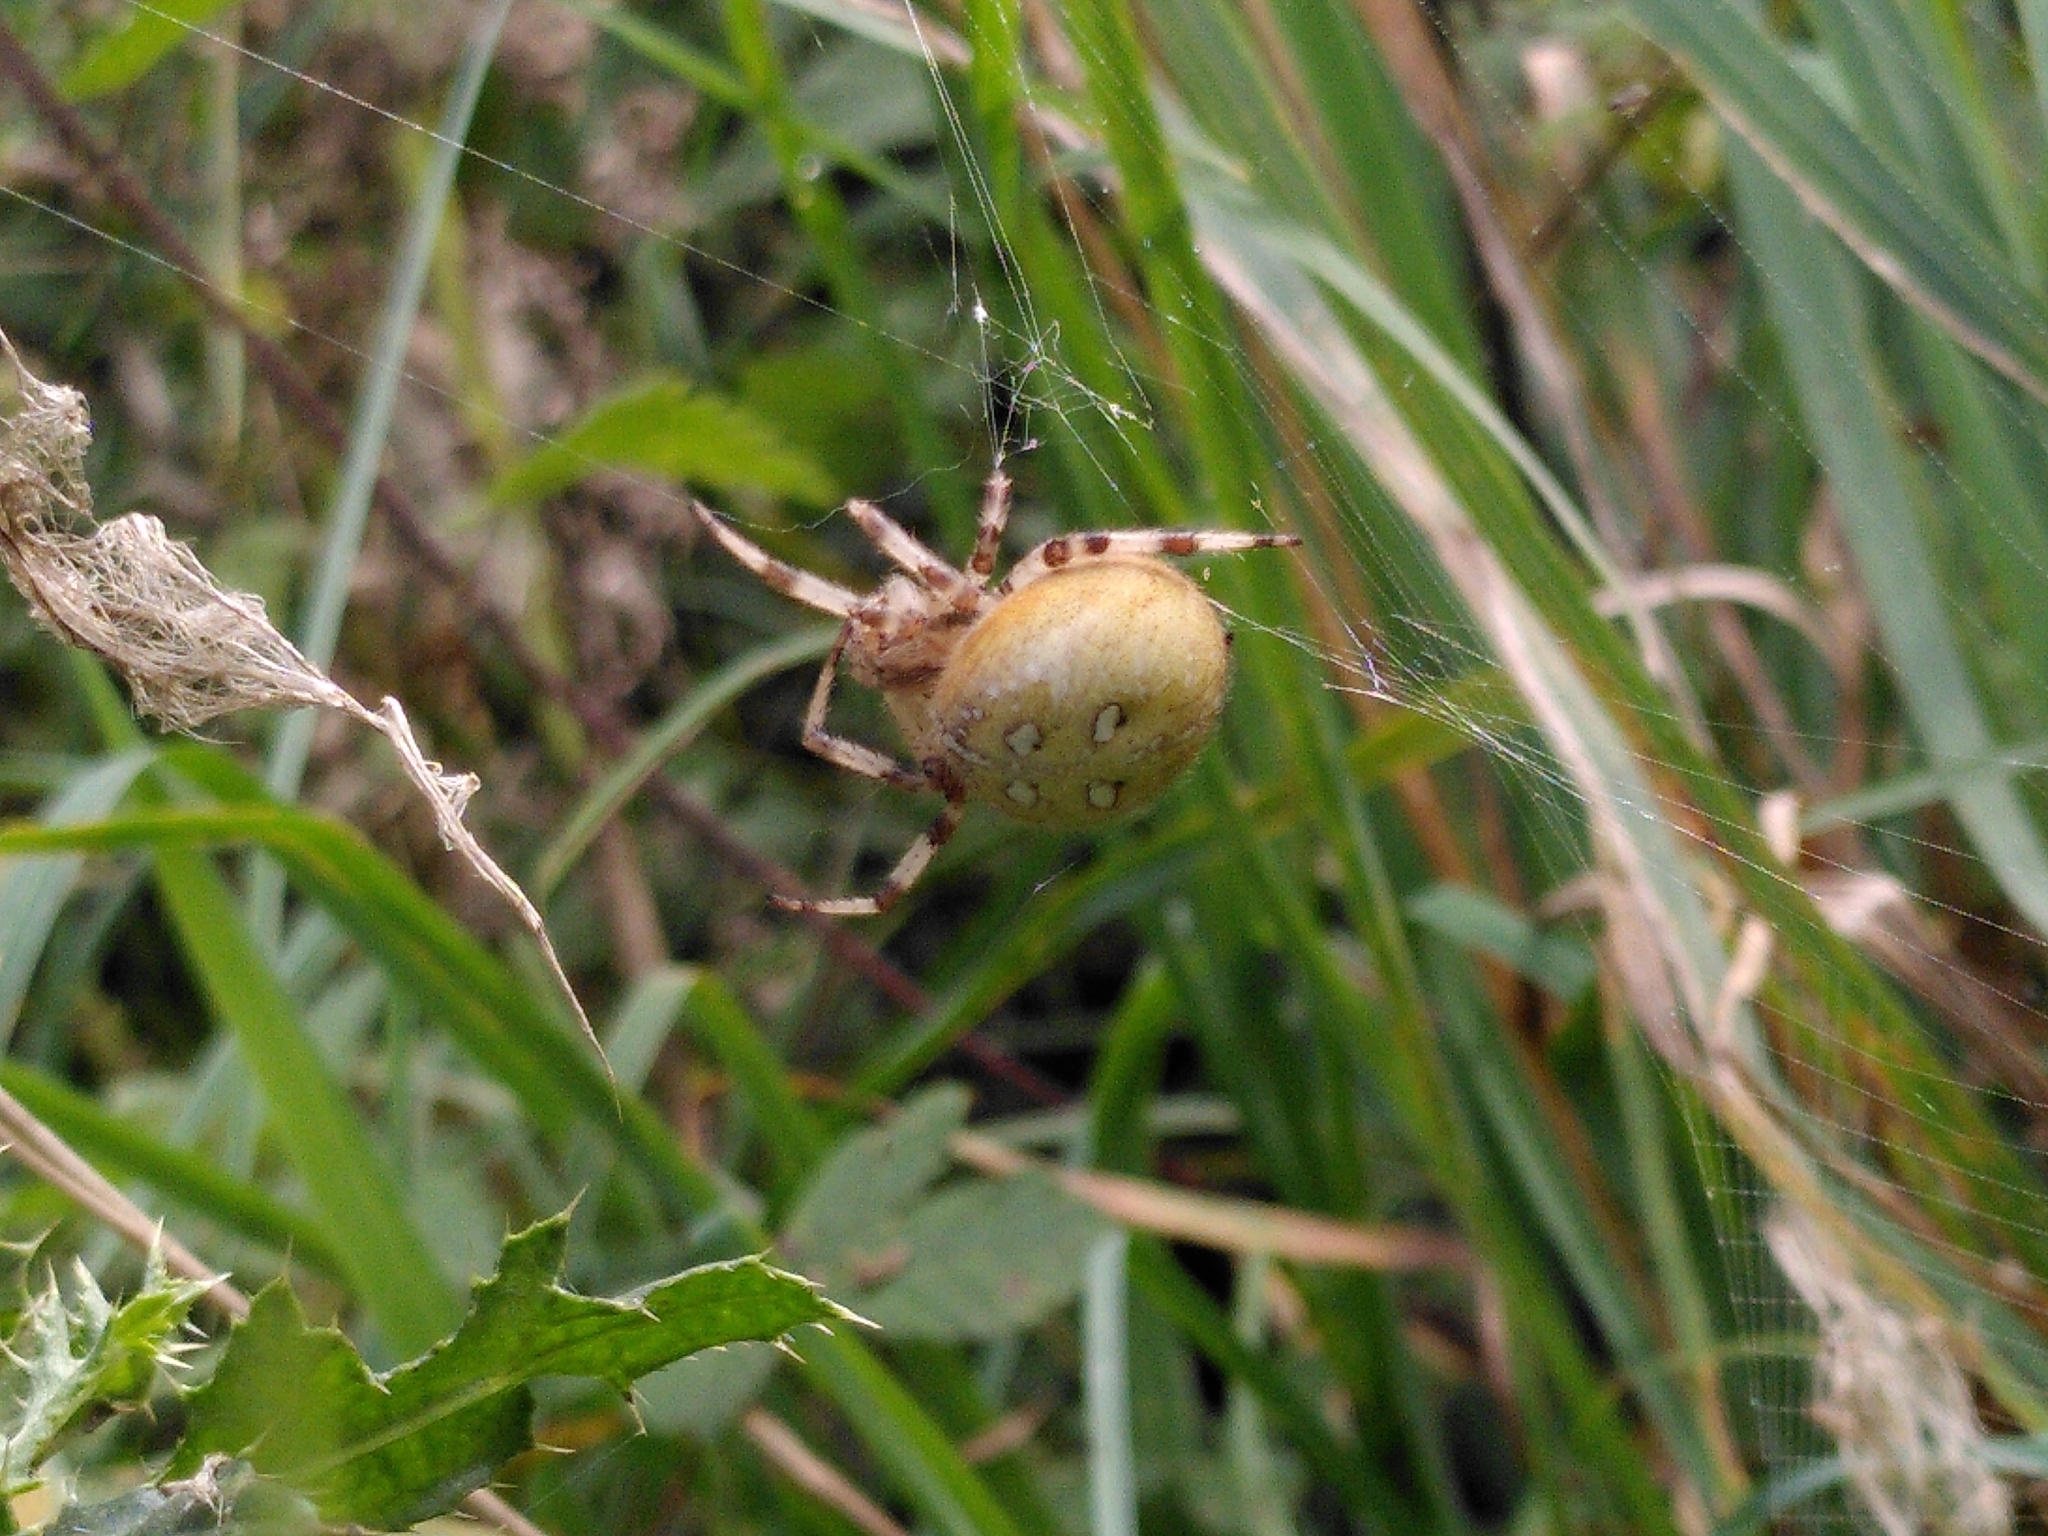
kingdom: Animalia
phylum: Arthropoda
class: Arachnida
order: Araneae
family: Araneidae
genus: Araneus
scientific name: Araneus quadratus
